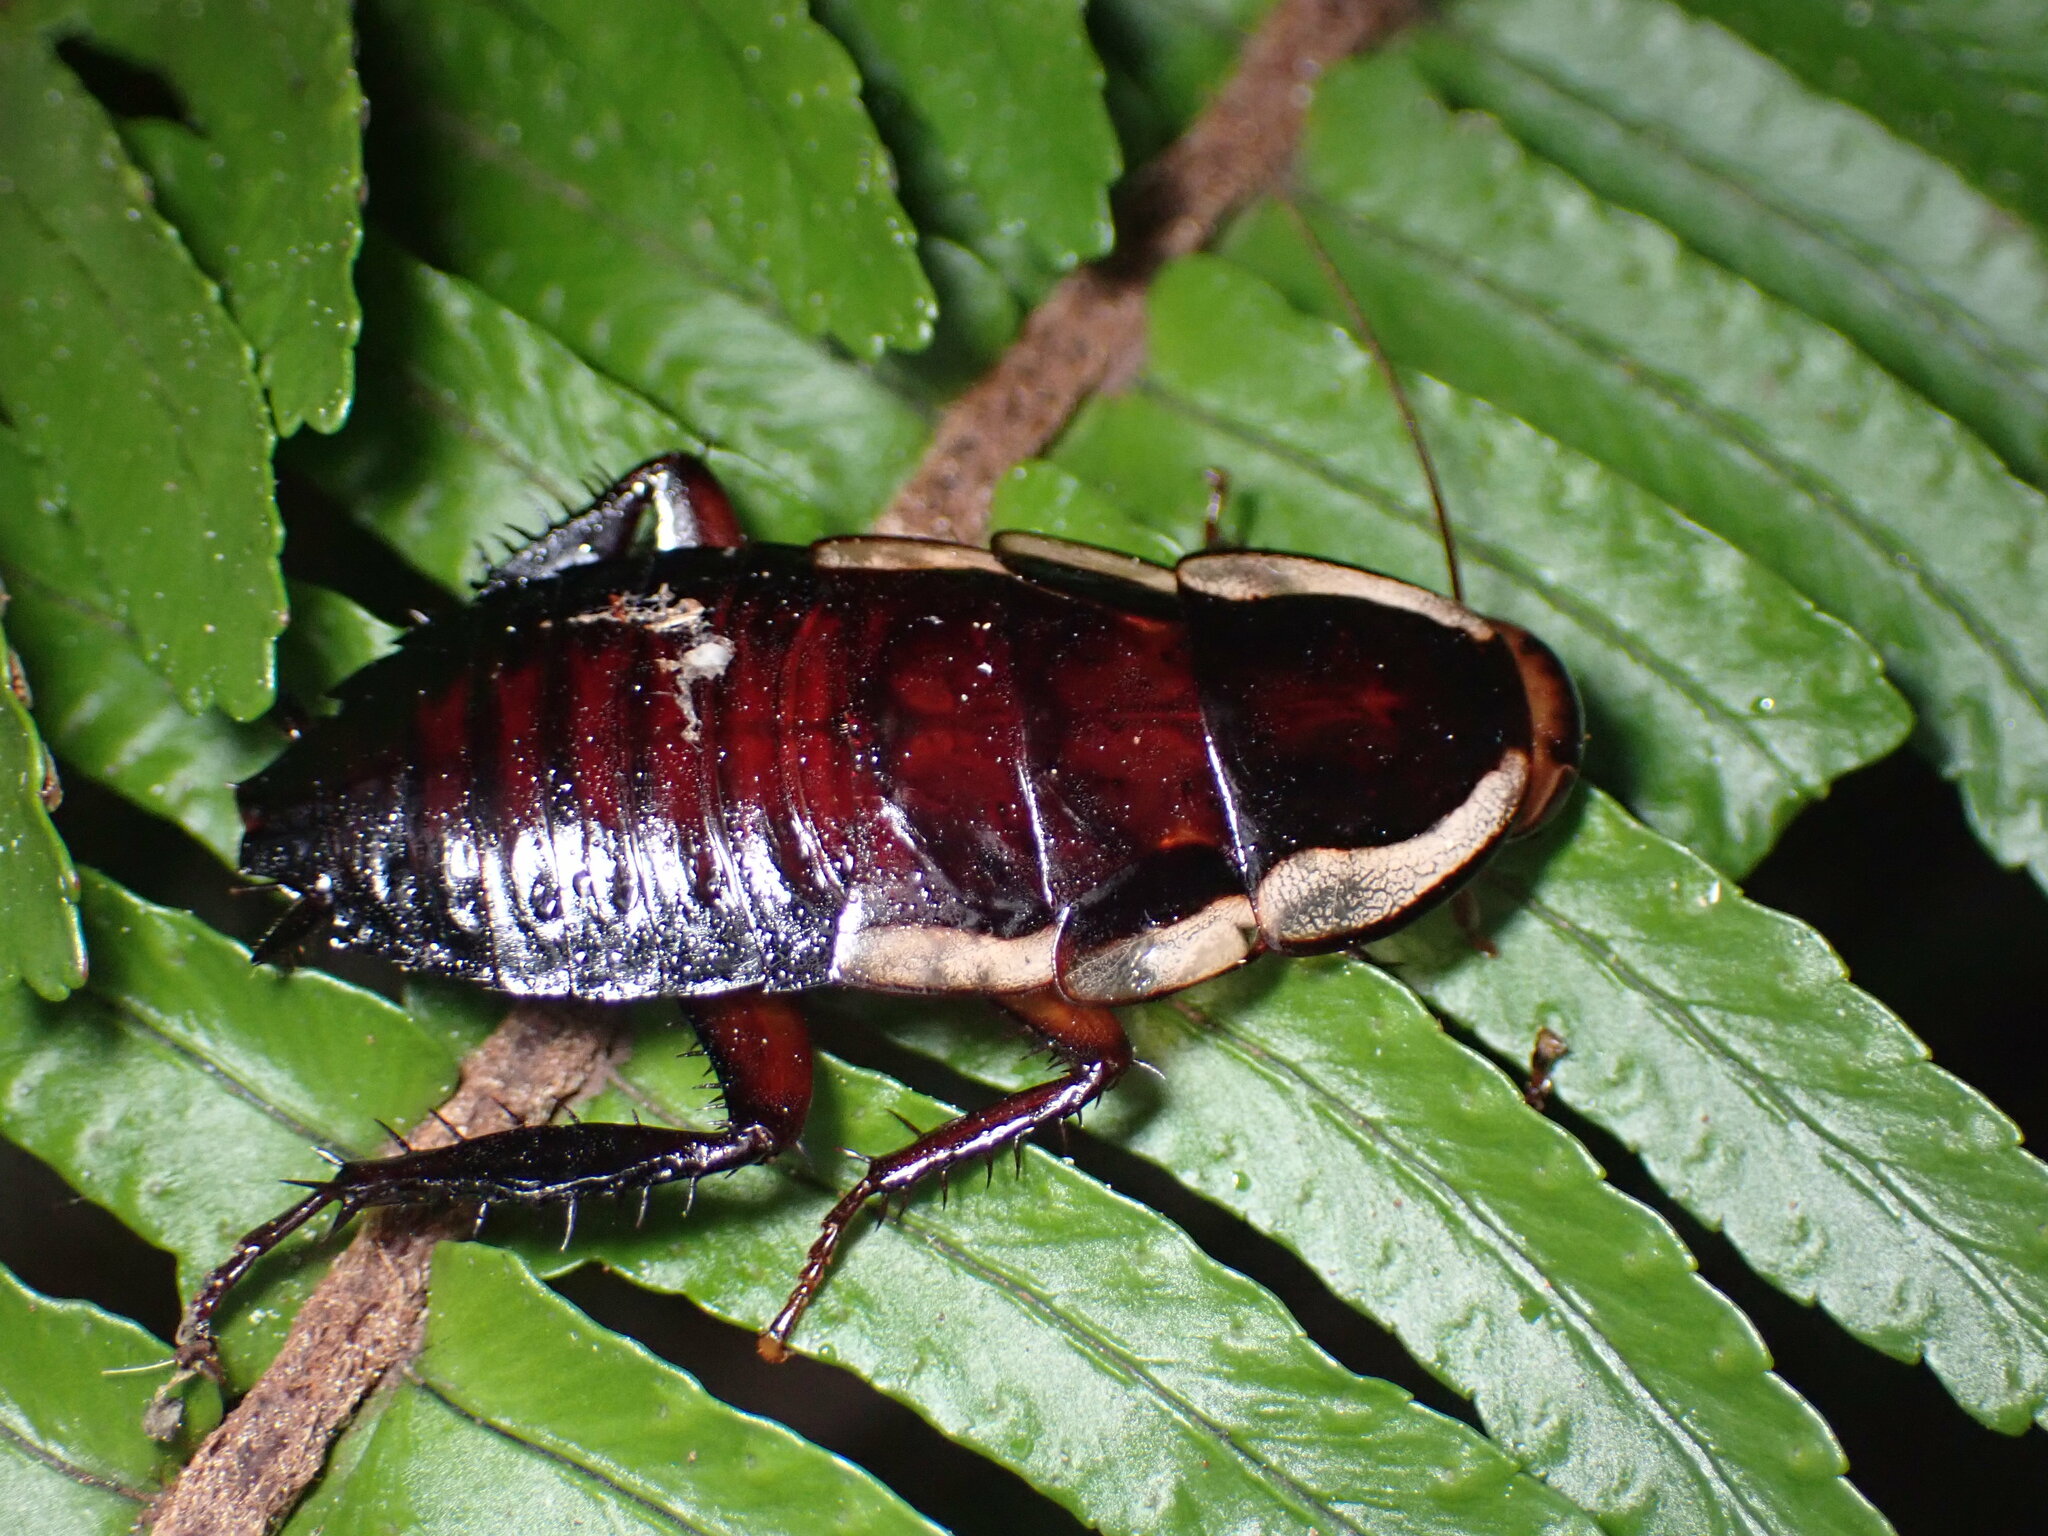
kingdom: Animalia
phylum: Arthropoda
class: Insecta
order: Blattodea
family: Blattidae
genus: Drymaplaneta
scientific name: Drymaplaneta semivitta
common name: Gisborne cockroach
